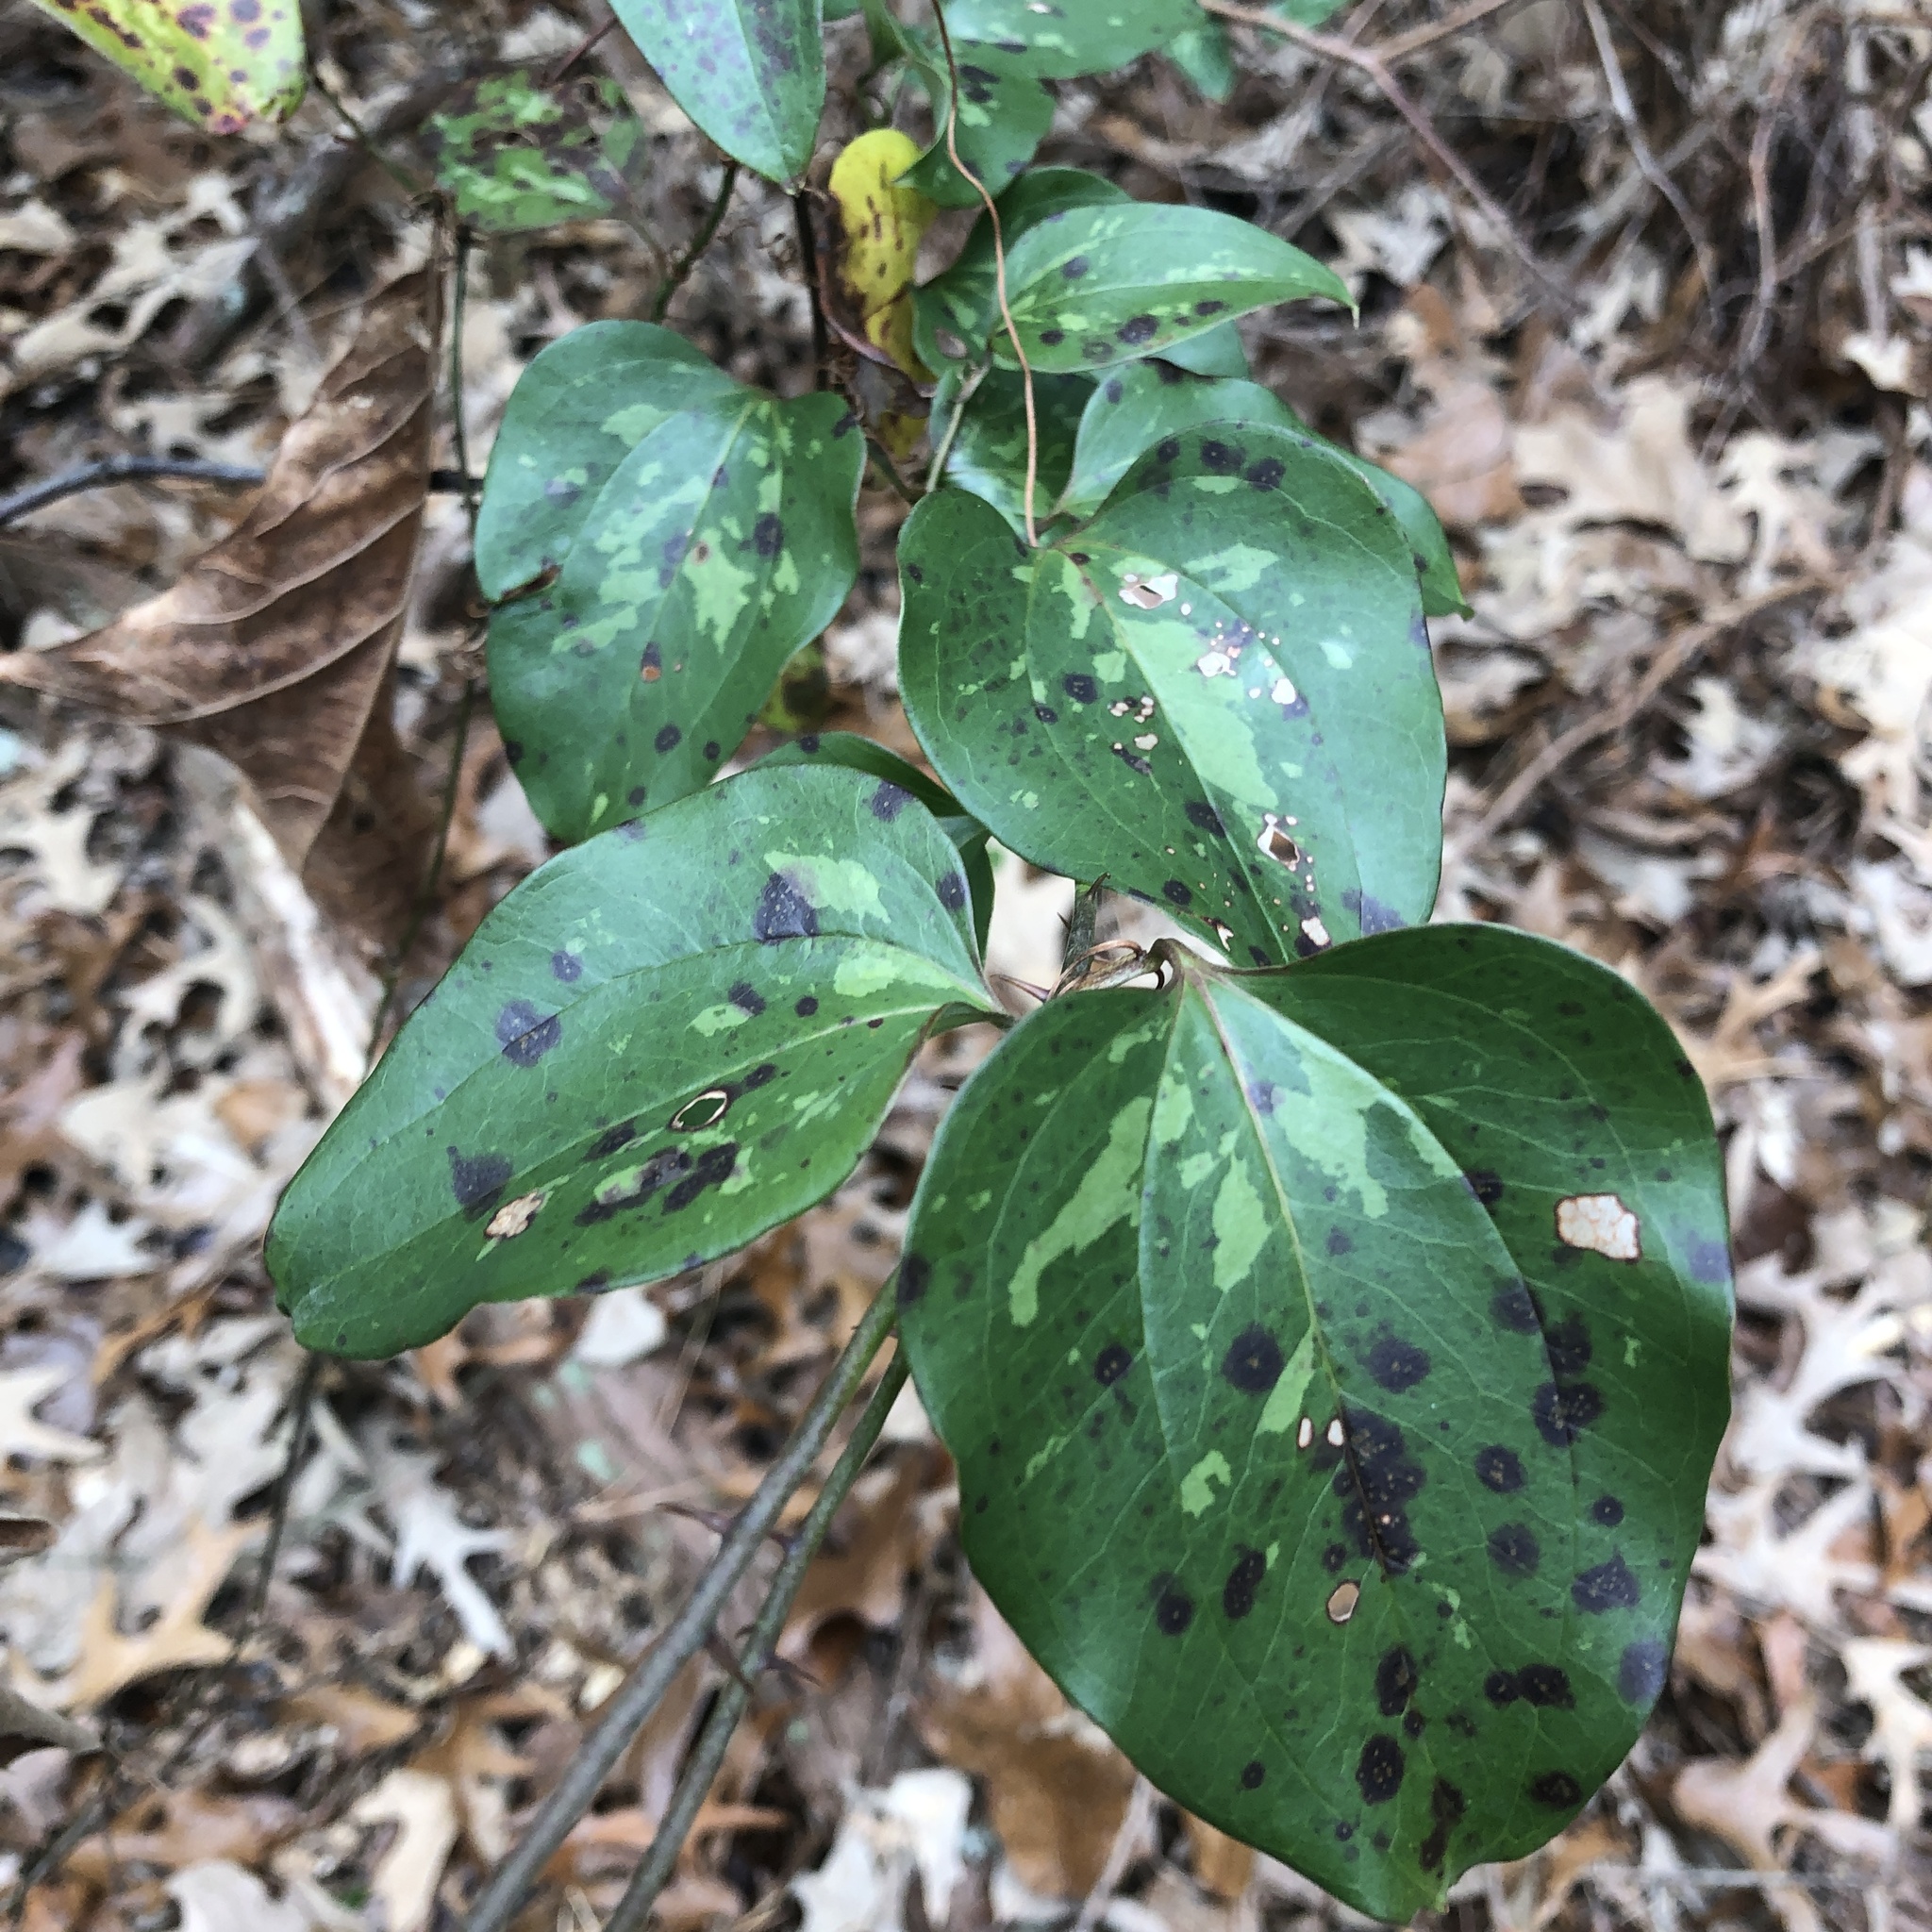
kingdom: Plantae
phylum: Tracheophyta
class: Liliopsida
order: Liliales
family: Smilacaceae
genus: Smilax
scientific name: Smilax glauca
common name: Cat greenbrier
